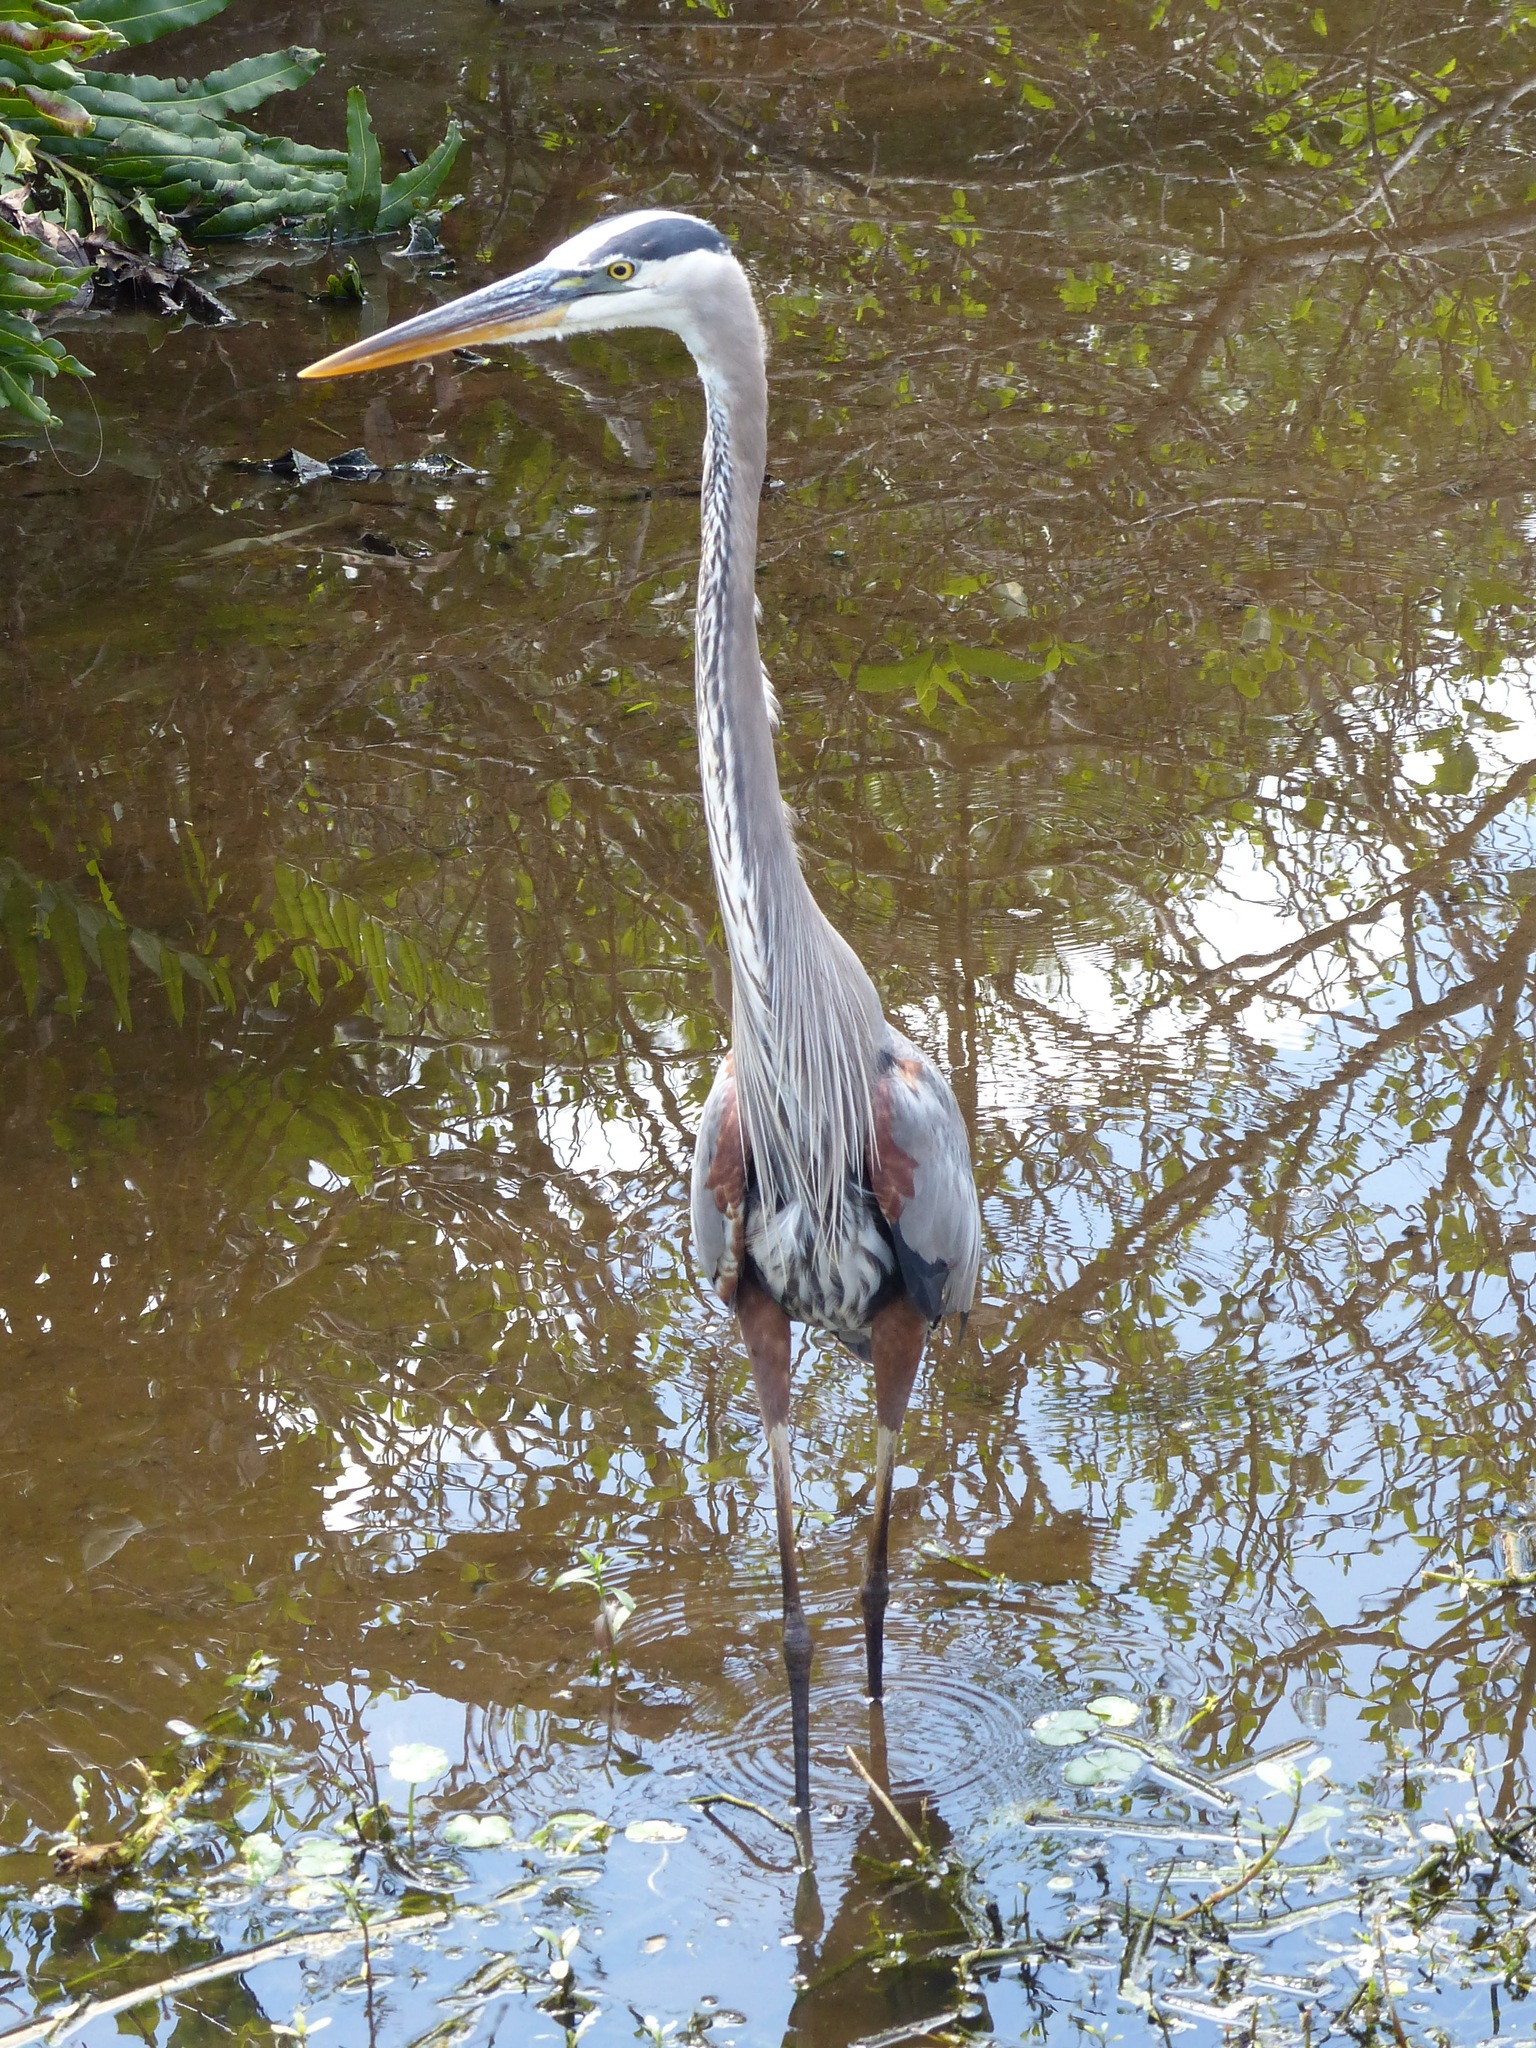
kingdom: Animalia
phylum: Chordata
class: Aves
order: Pelecaniformes
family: Ardeidae
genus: Ardea
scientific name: Ardea herodias
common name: Great blue heron
